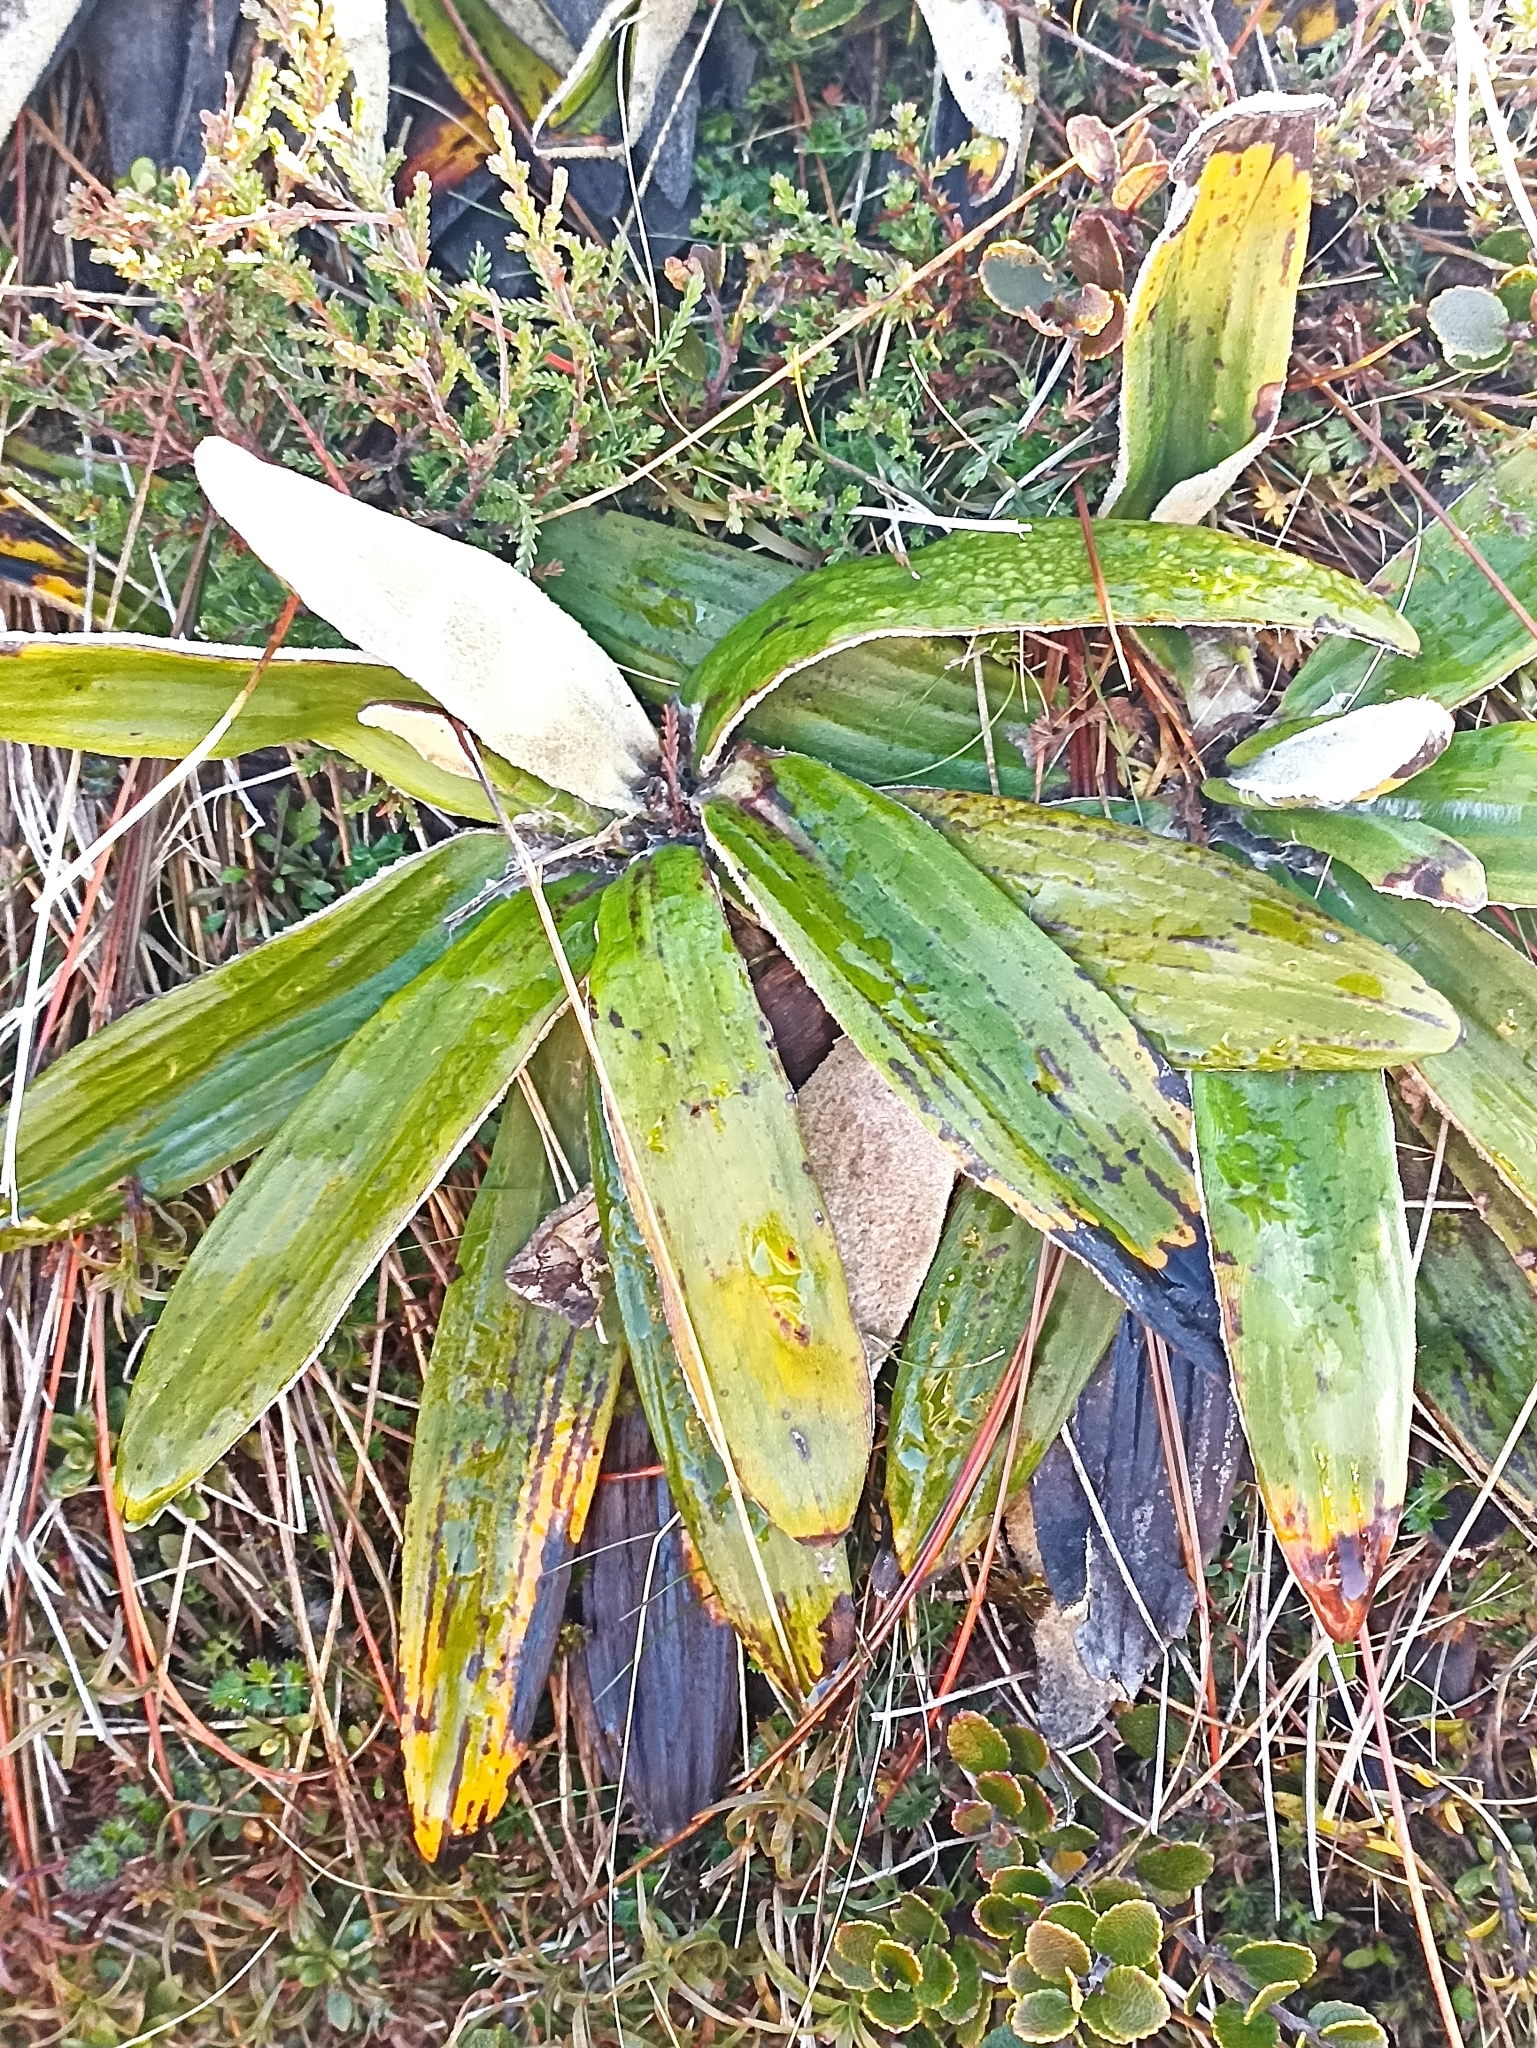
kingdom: Plantae
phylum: Tracheophyta
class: Magnoliopsida
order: Asterales
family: Asteraceae
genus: Celmisia
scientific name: Celmisia spectabilis
